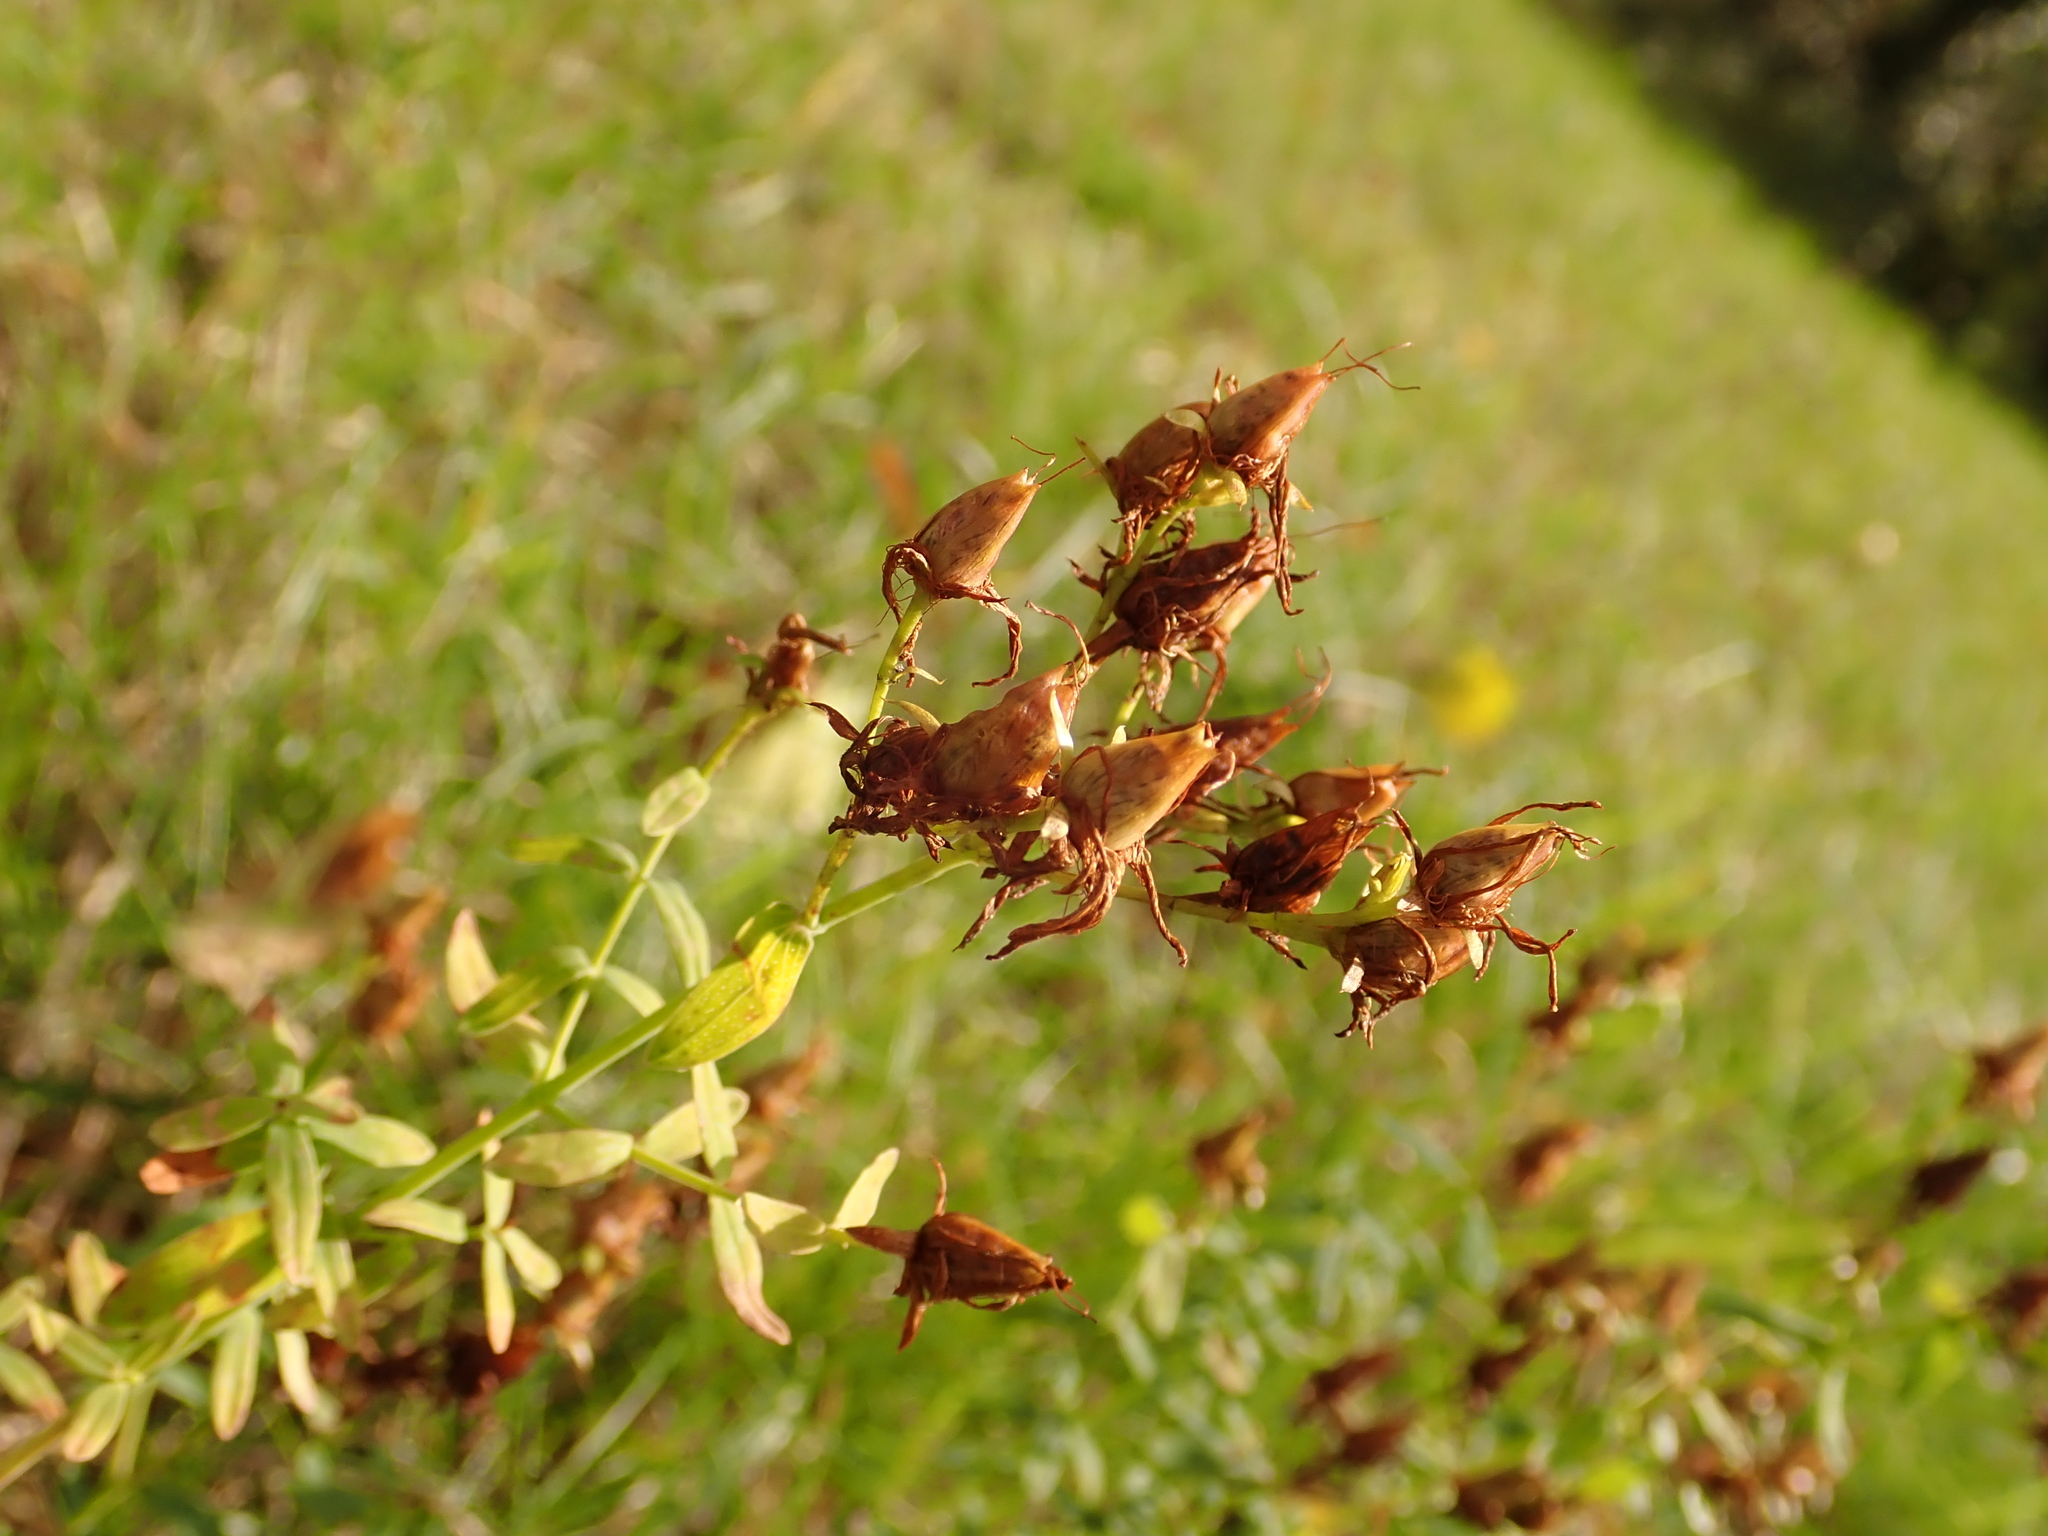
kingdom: Plantae
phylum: Tracheophyta
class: Magnoliopsida
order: Malpighiales
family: Hypericaceae
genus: Hypericum
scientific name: Hypericum perforatum
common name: Common st. johnswort
